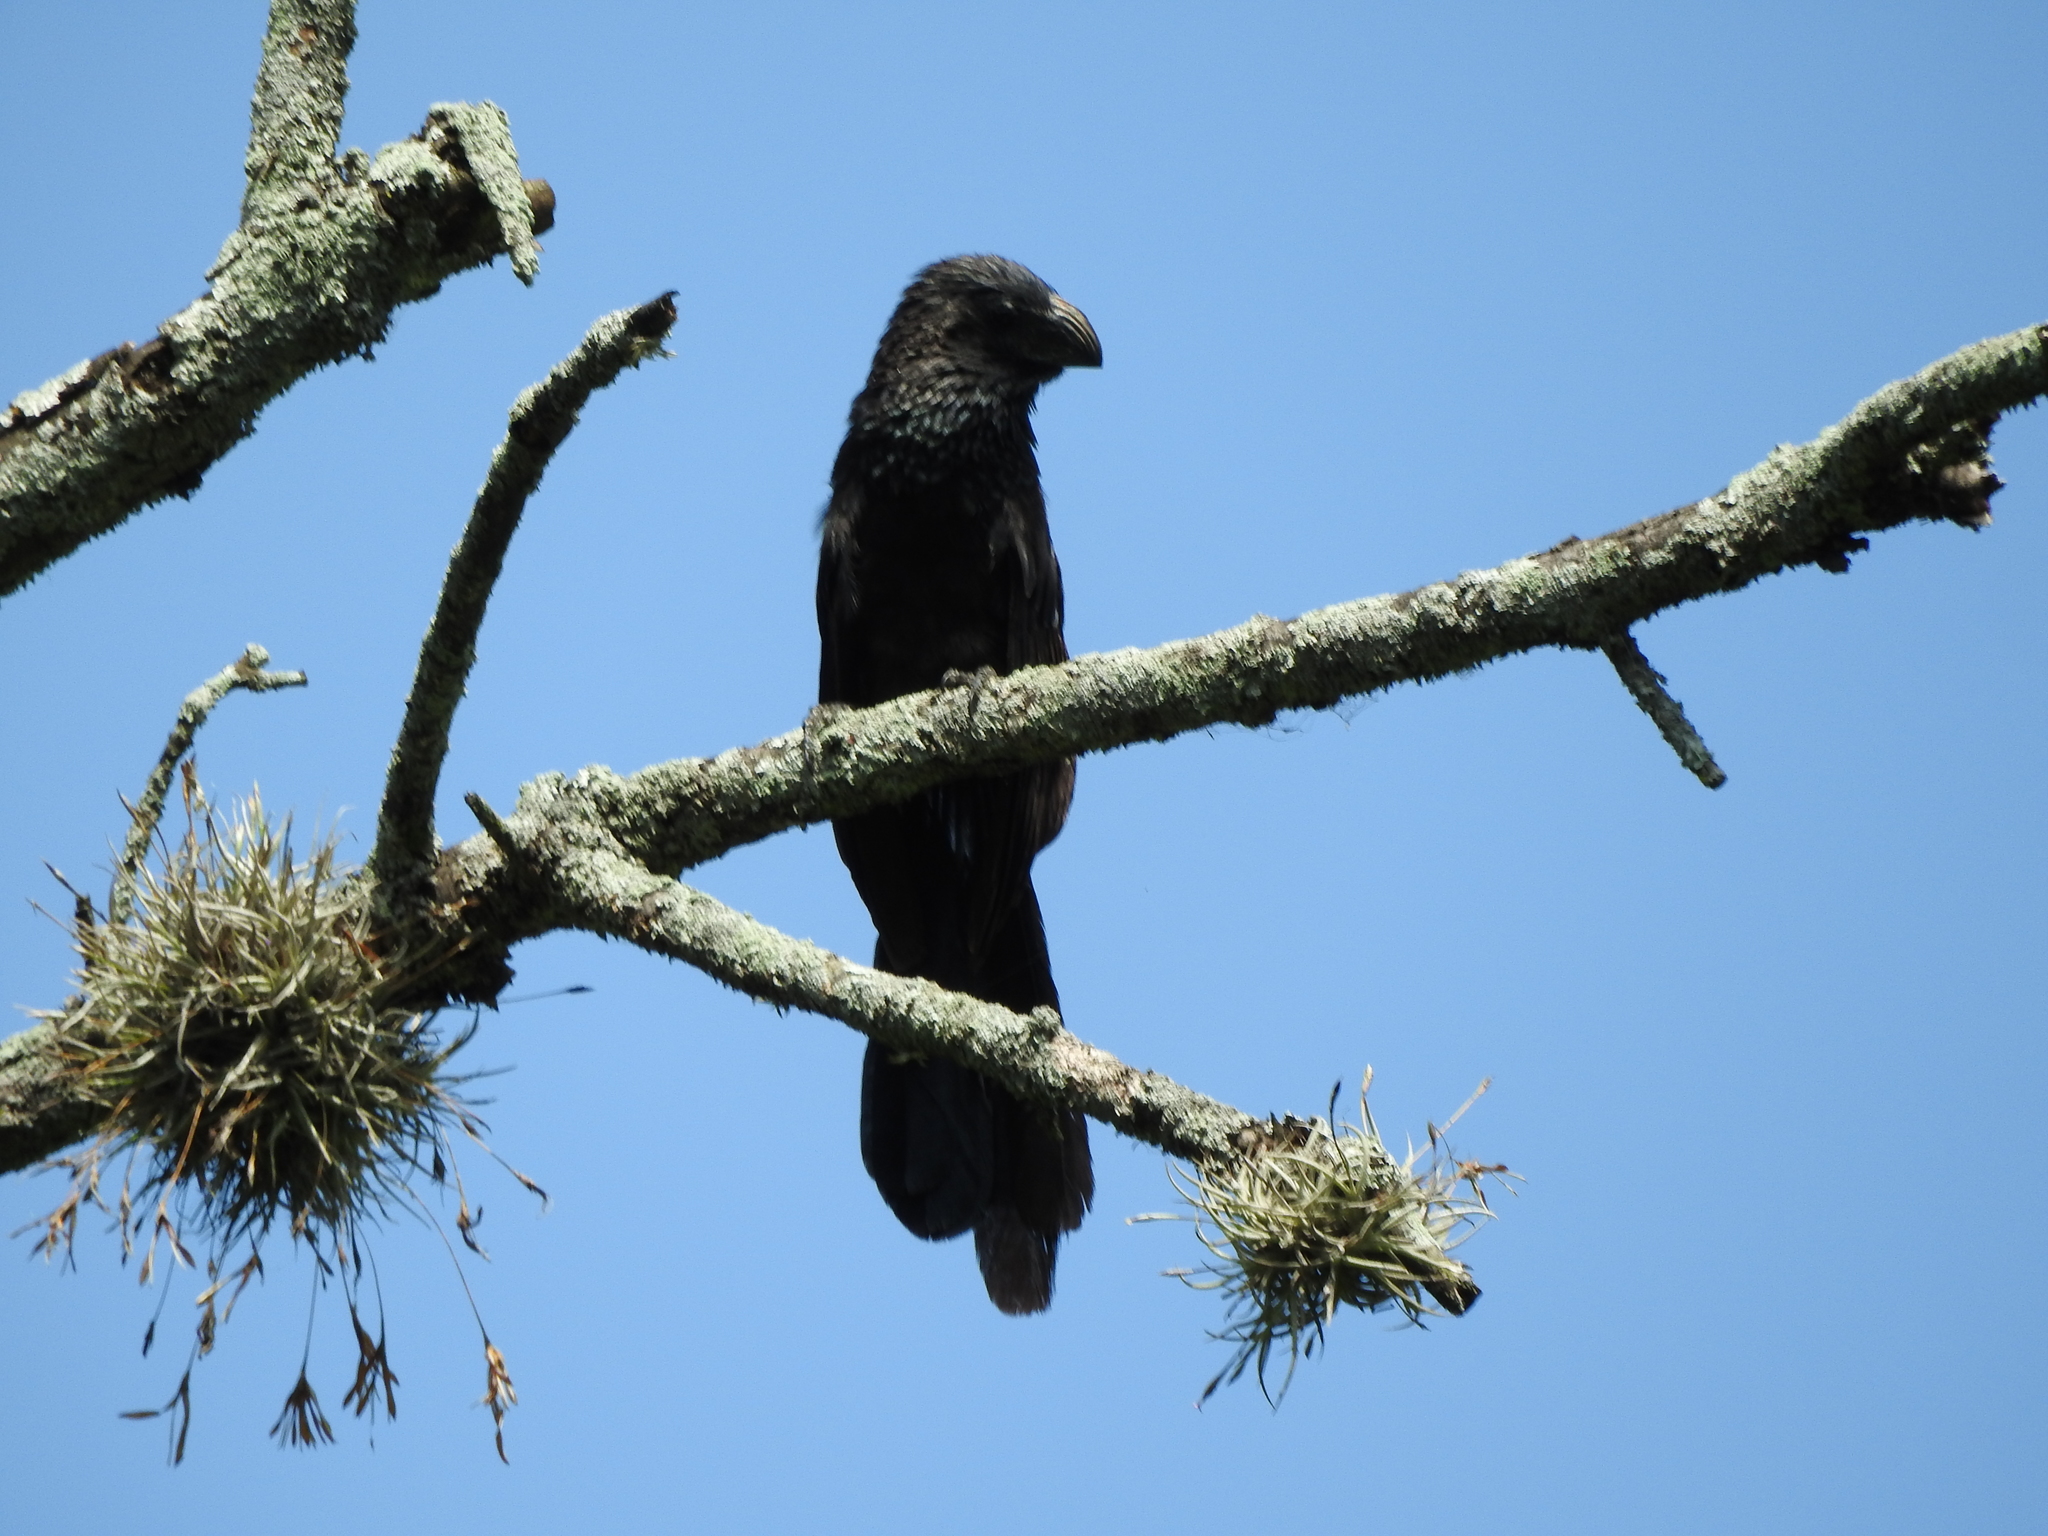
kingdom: Animalia
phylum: Chordata
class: Aves
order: Cuculiformes
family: Cuculidae
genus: Crotophaga
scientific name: Crotophaga sulcirostris
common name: Groove-billed ani
